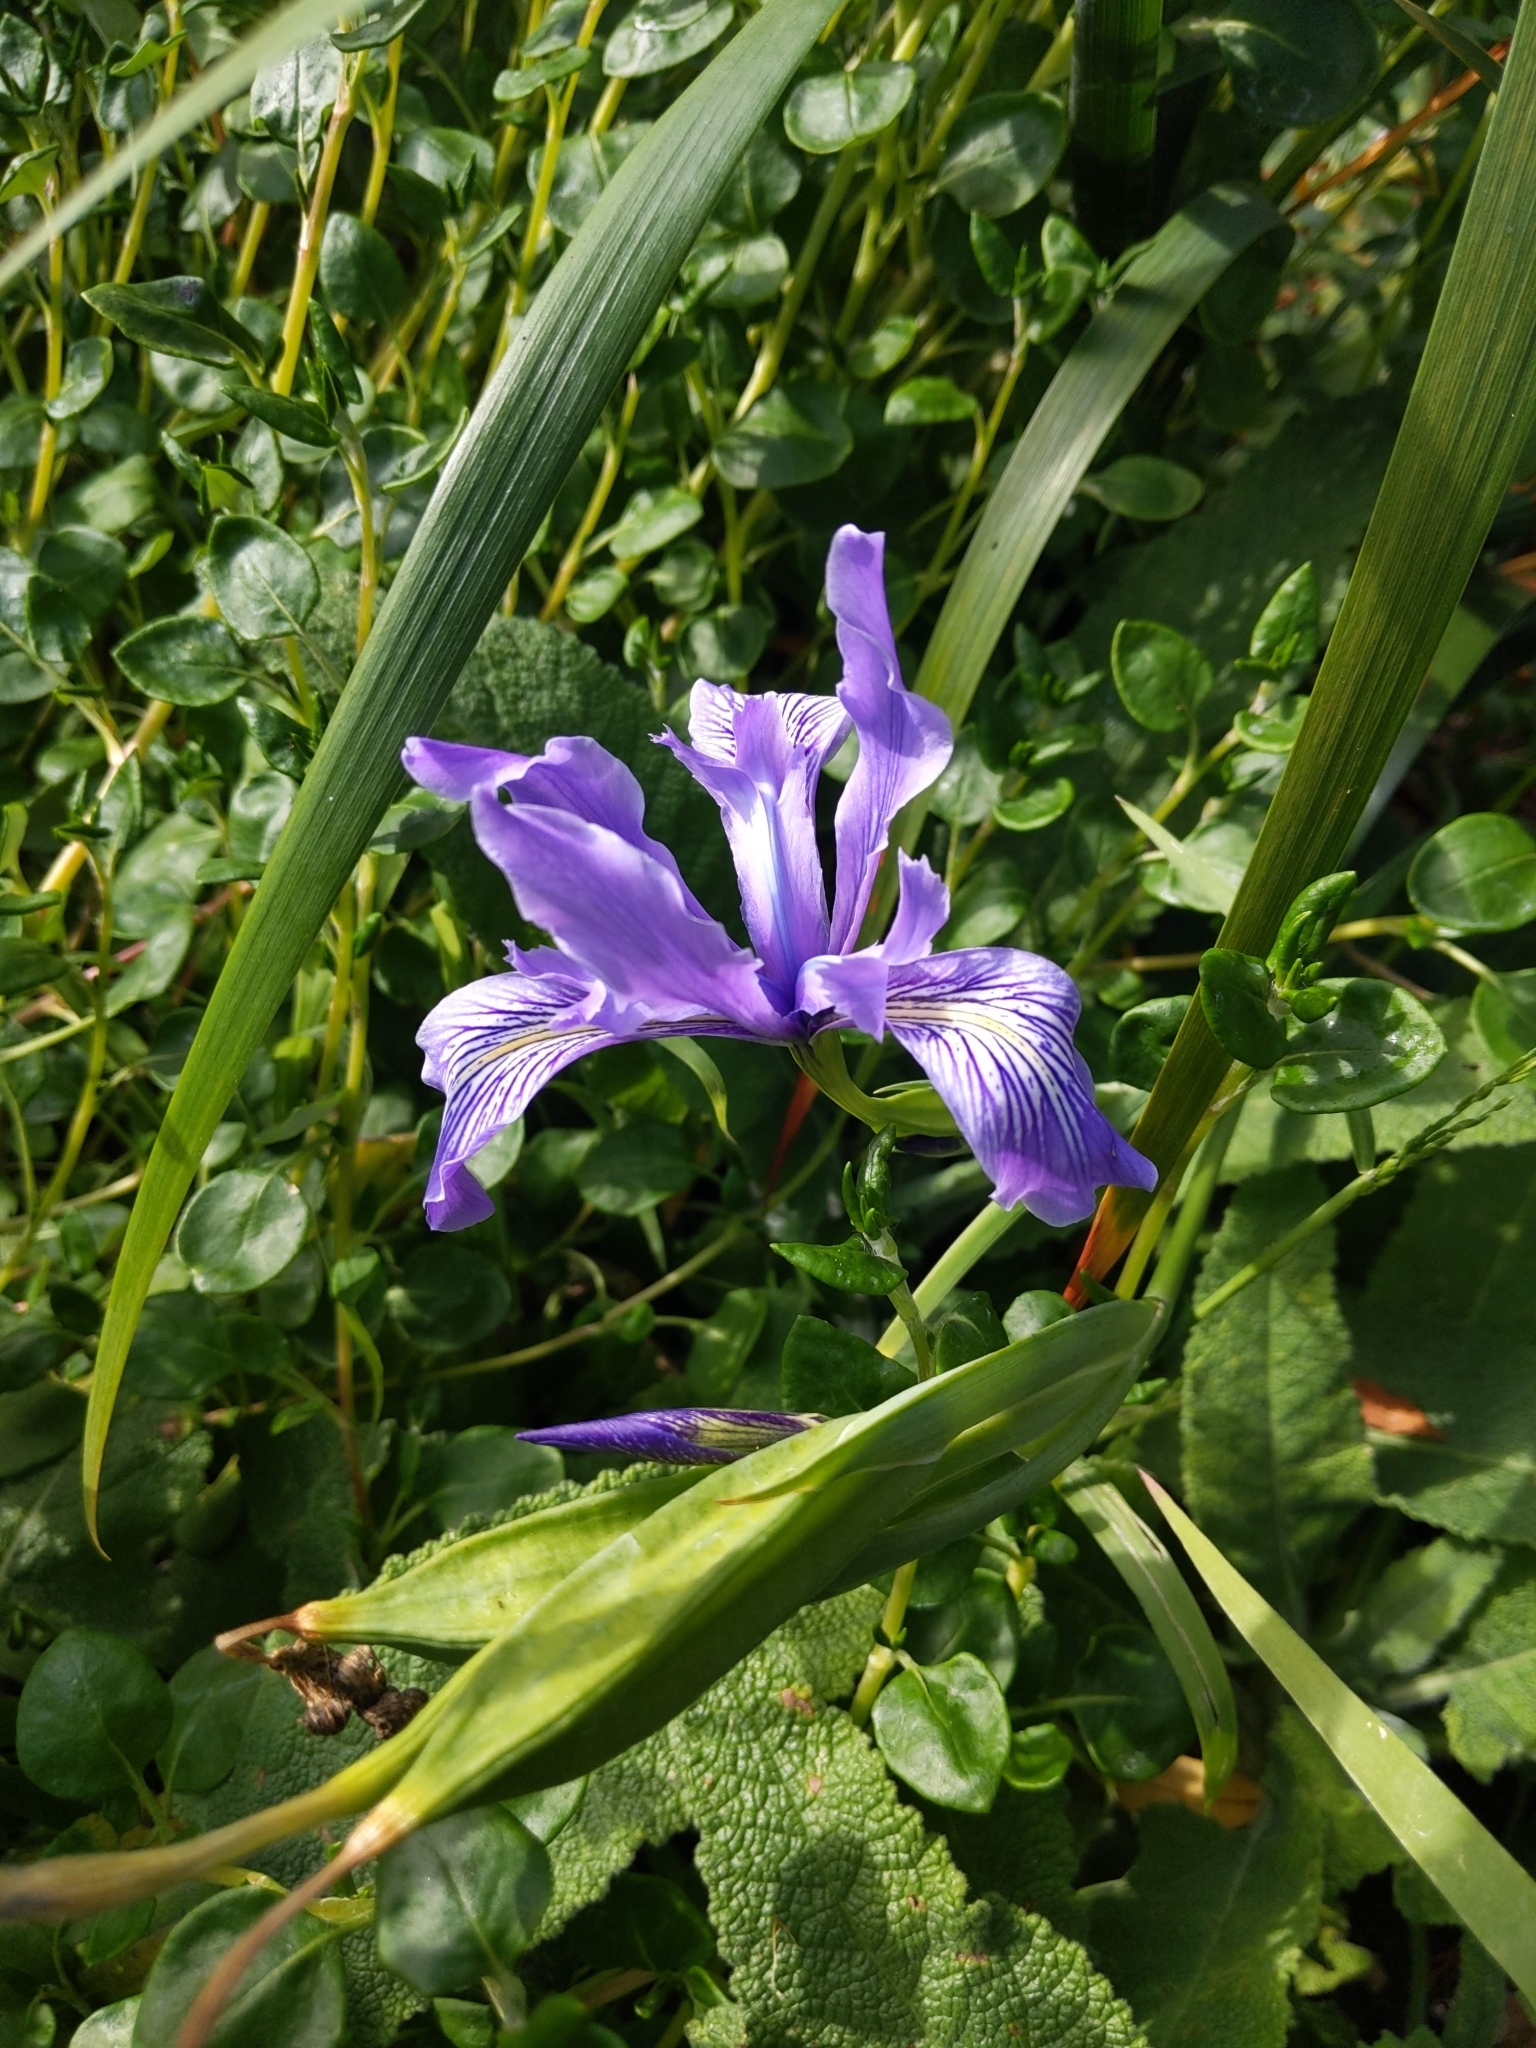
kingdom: Plantae
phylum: Tracheophyta
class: Liliopsida
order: Asparagales
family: Iridaceae
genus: Iris
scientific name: Iris douglasiana
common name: Marin iris
